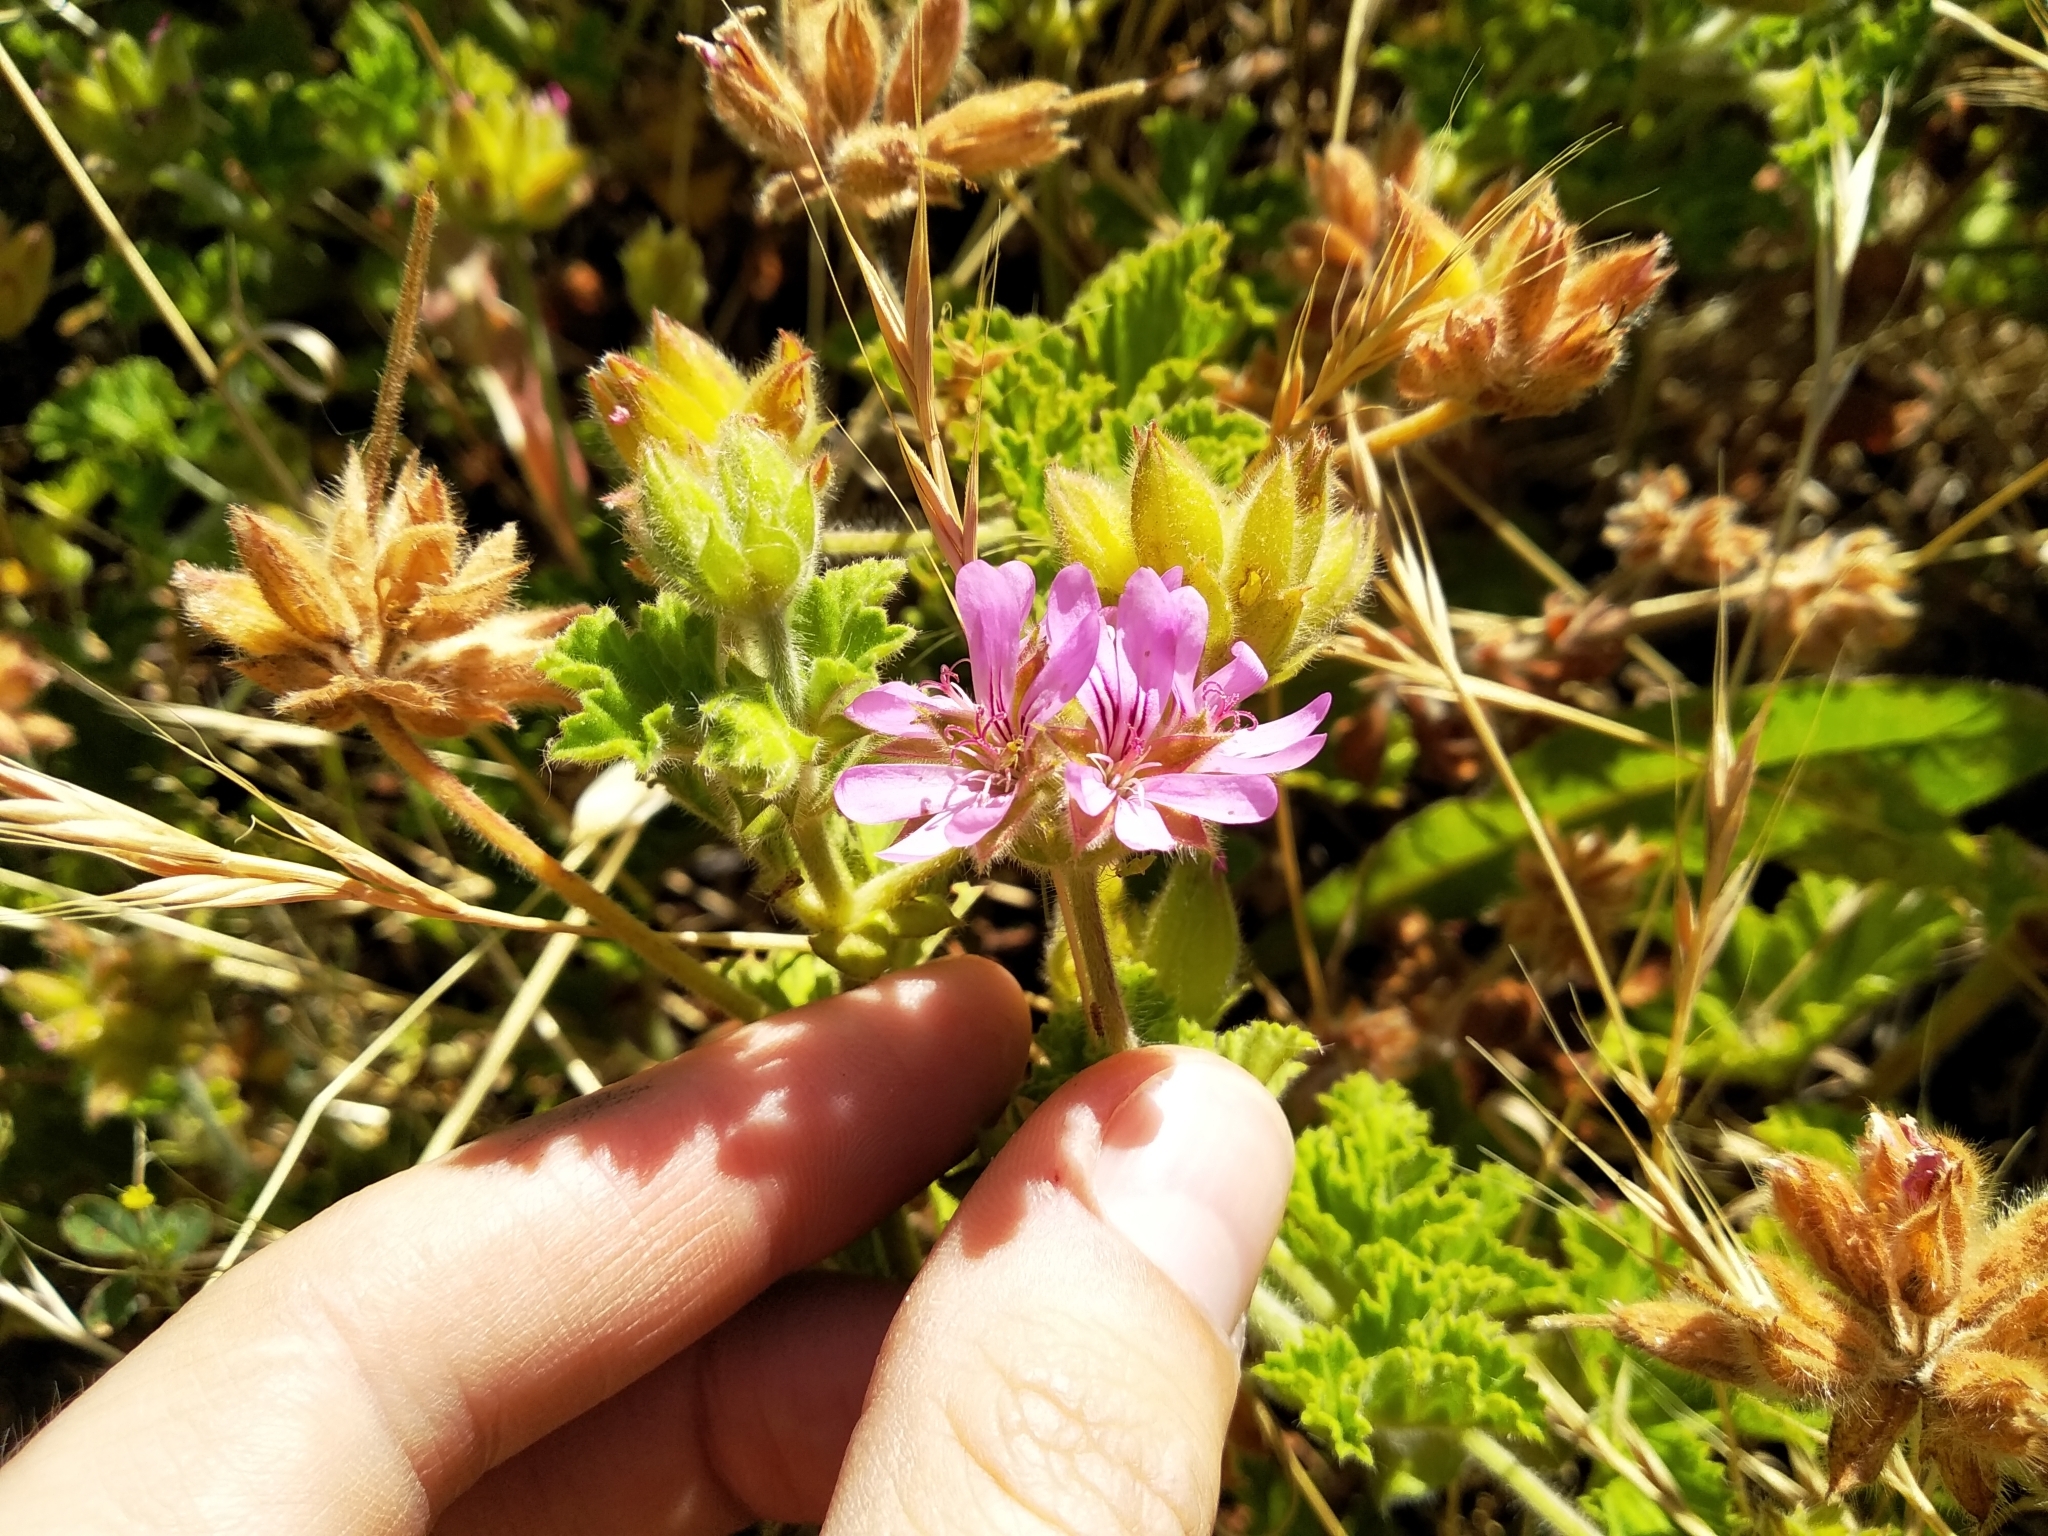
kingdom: Plantae
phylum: Tracheophyta
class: Magnoliopsida
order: Geraniales
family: Geraniaceae
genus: Pelargonium
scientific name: Pelargonium capitatum
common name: Rose scented geranium
